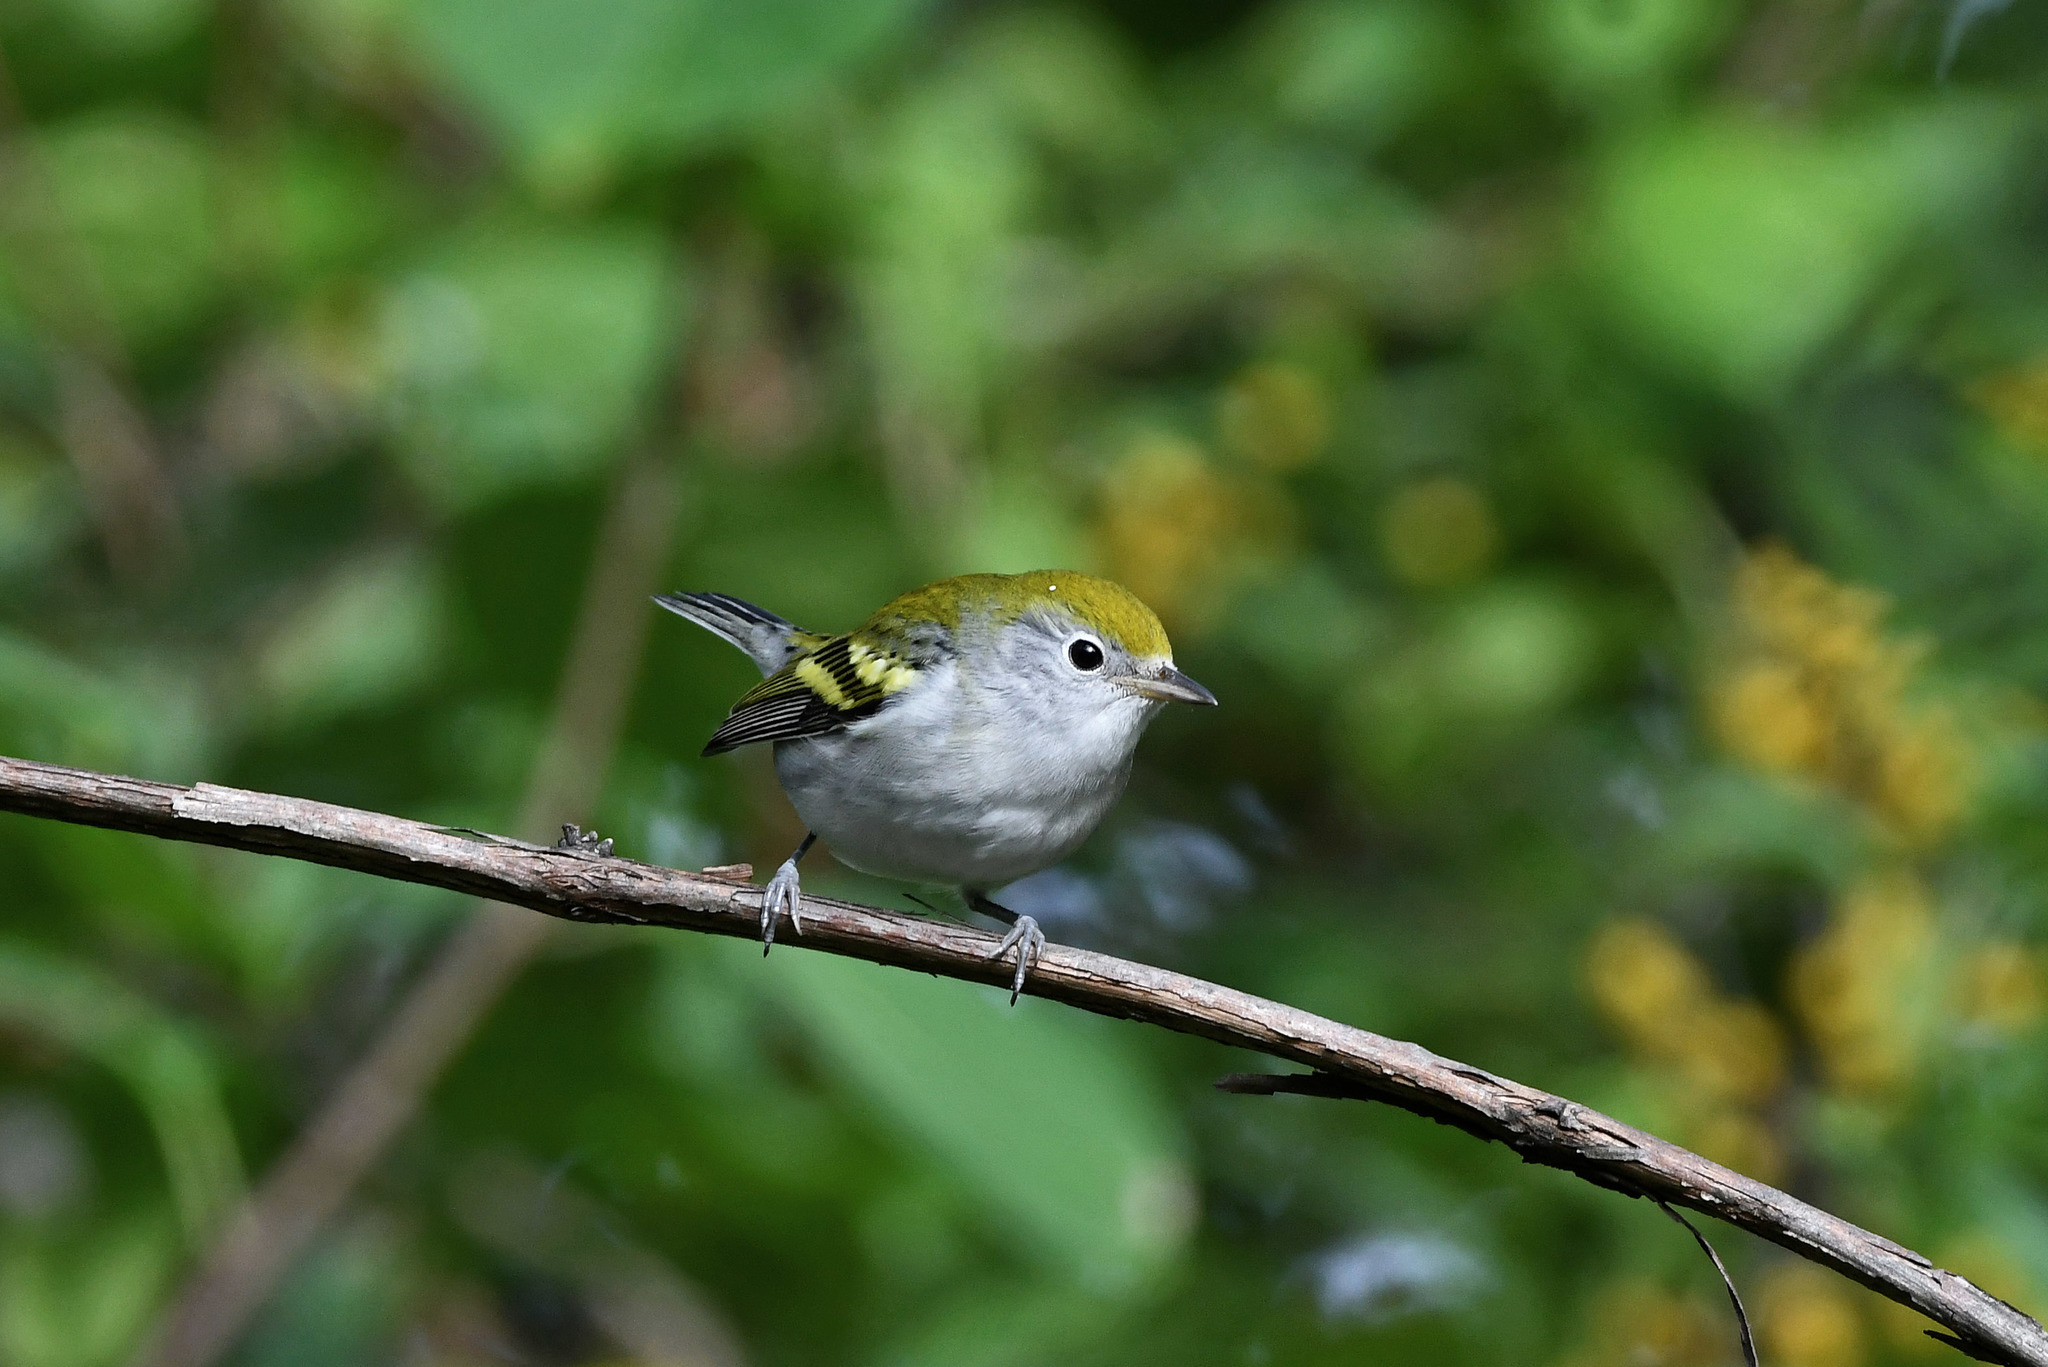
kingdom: Animalia
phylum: Chordata
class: Aves
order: Passeriformes
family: Parulidae
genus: Setophaga
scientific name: Setophaga pensylvanica
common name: Chestnut-sided warbler
